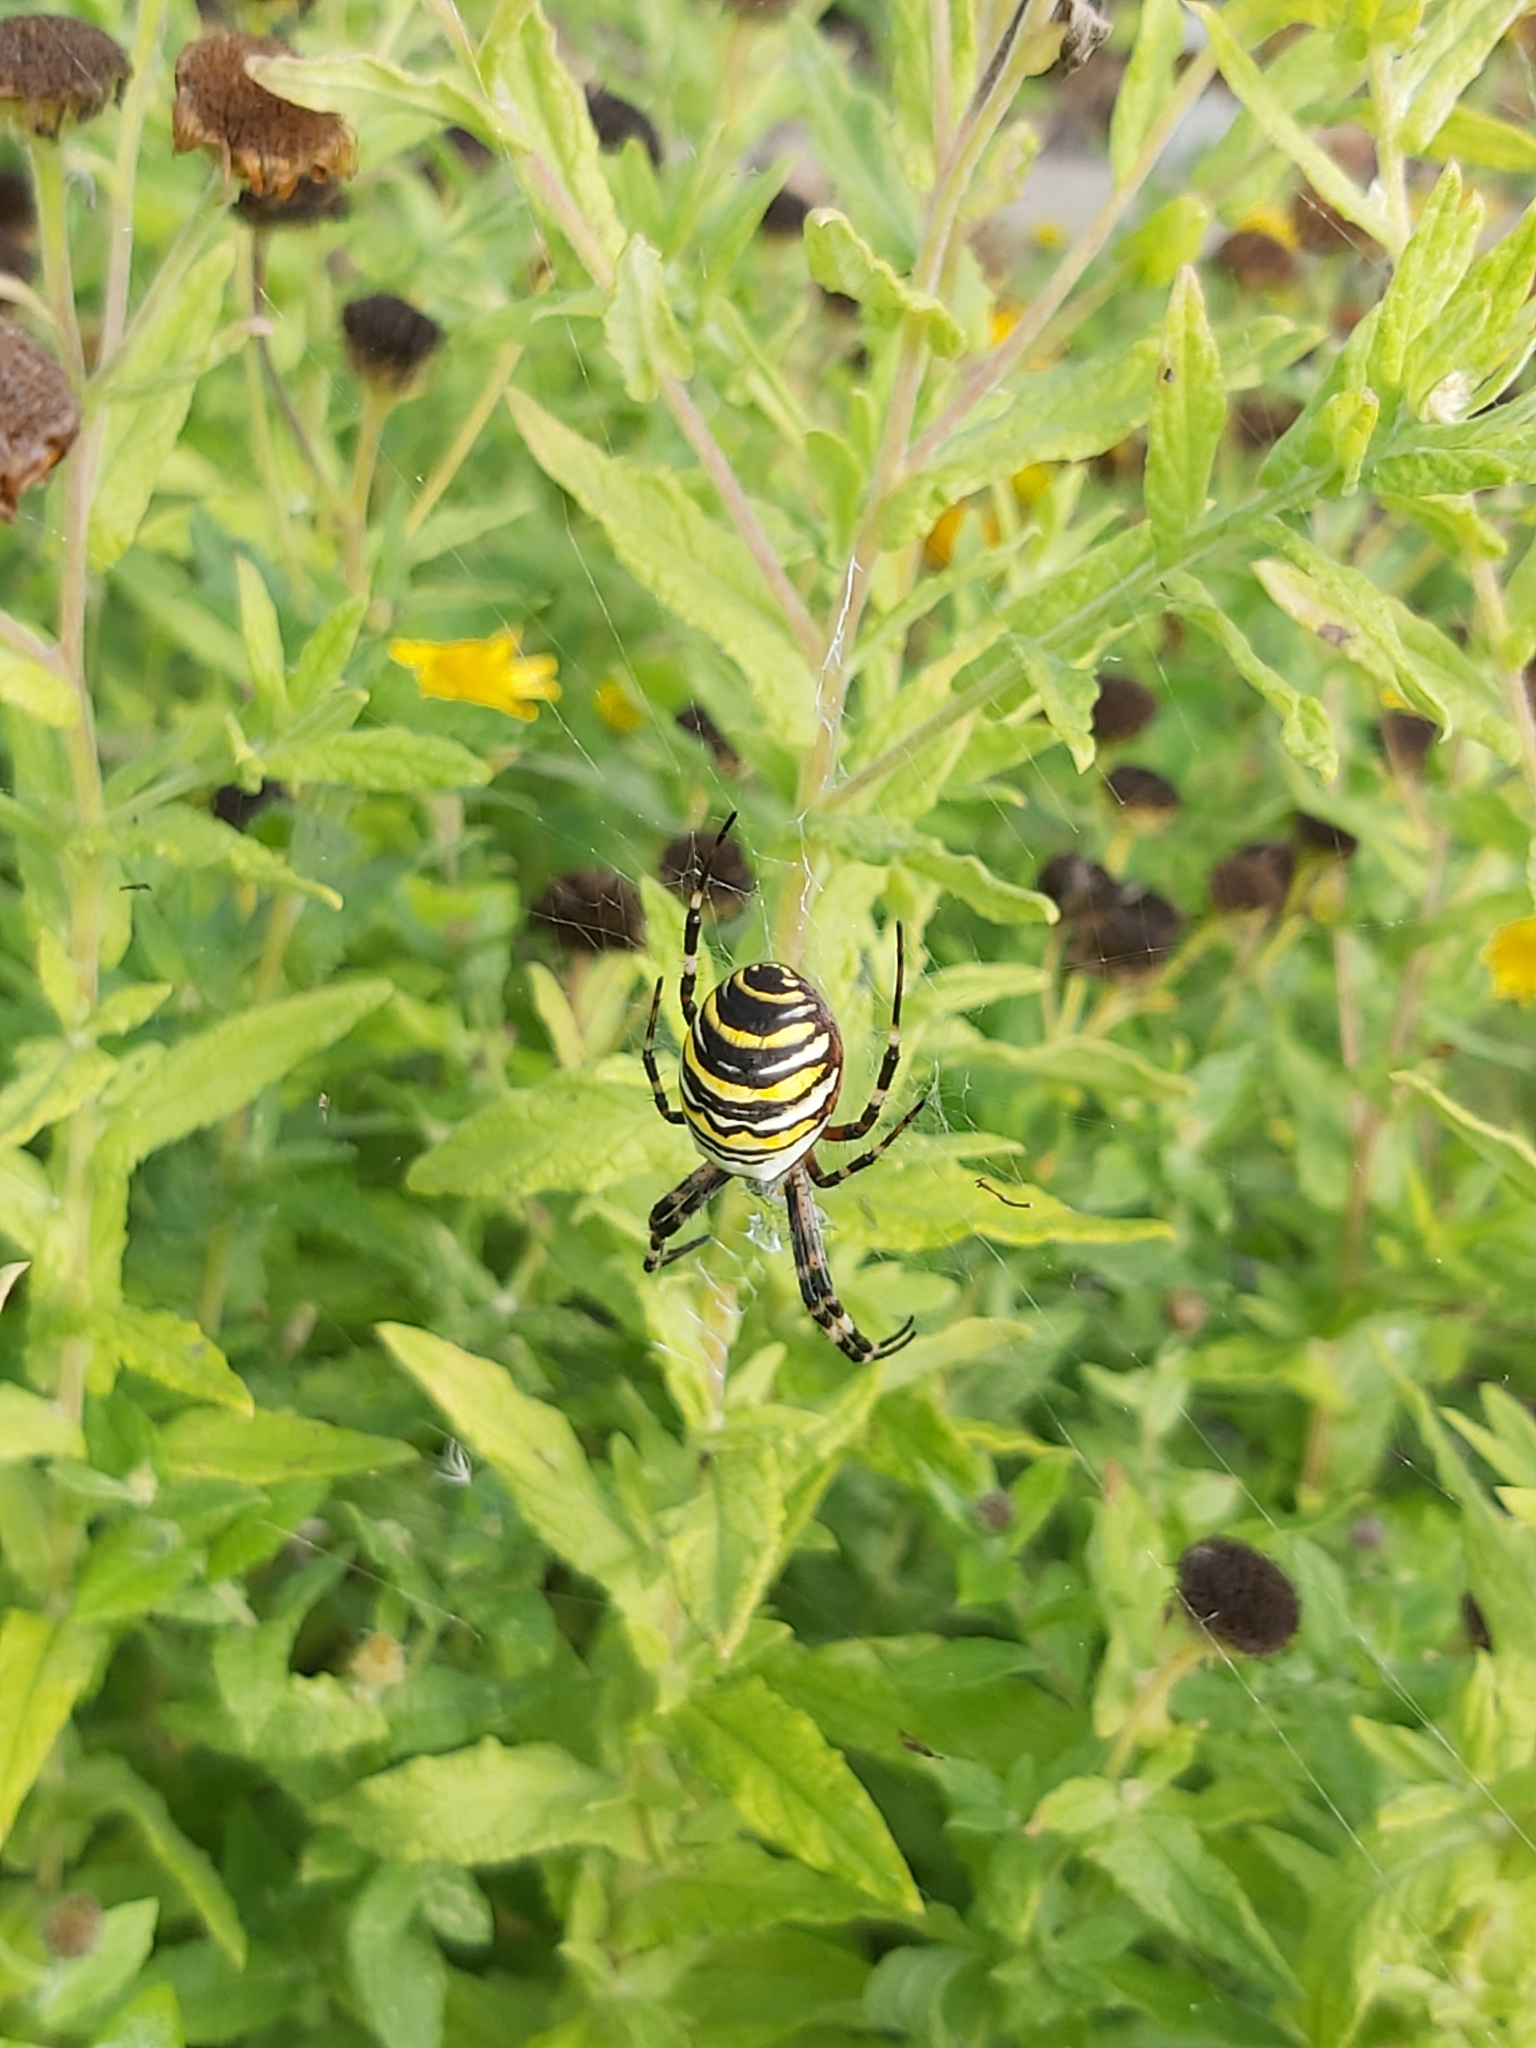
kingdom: Animalia
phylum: Arthropoda
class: Arachnida
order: Araneae
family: Araneidae
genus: Argiope
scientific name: Argiope bruennichi
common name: Wasp spider
